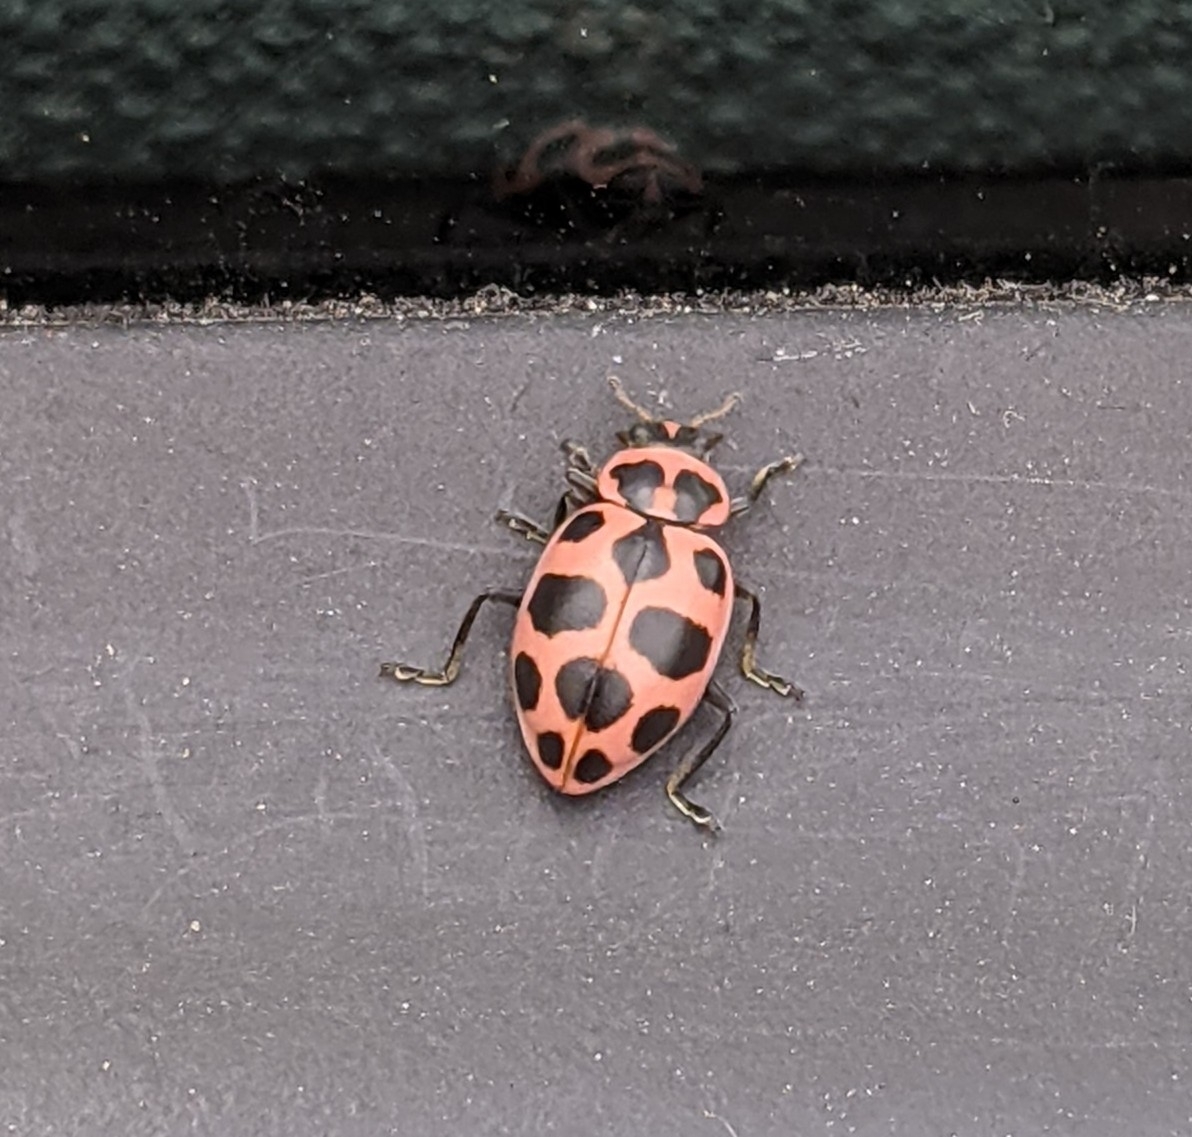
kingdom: Animalia
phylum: Arthropoda
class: Insecta
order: Coleoptera
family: Coccinellidae
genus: Coleomegilla
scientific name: Coleomegilla maculata
